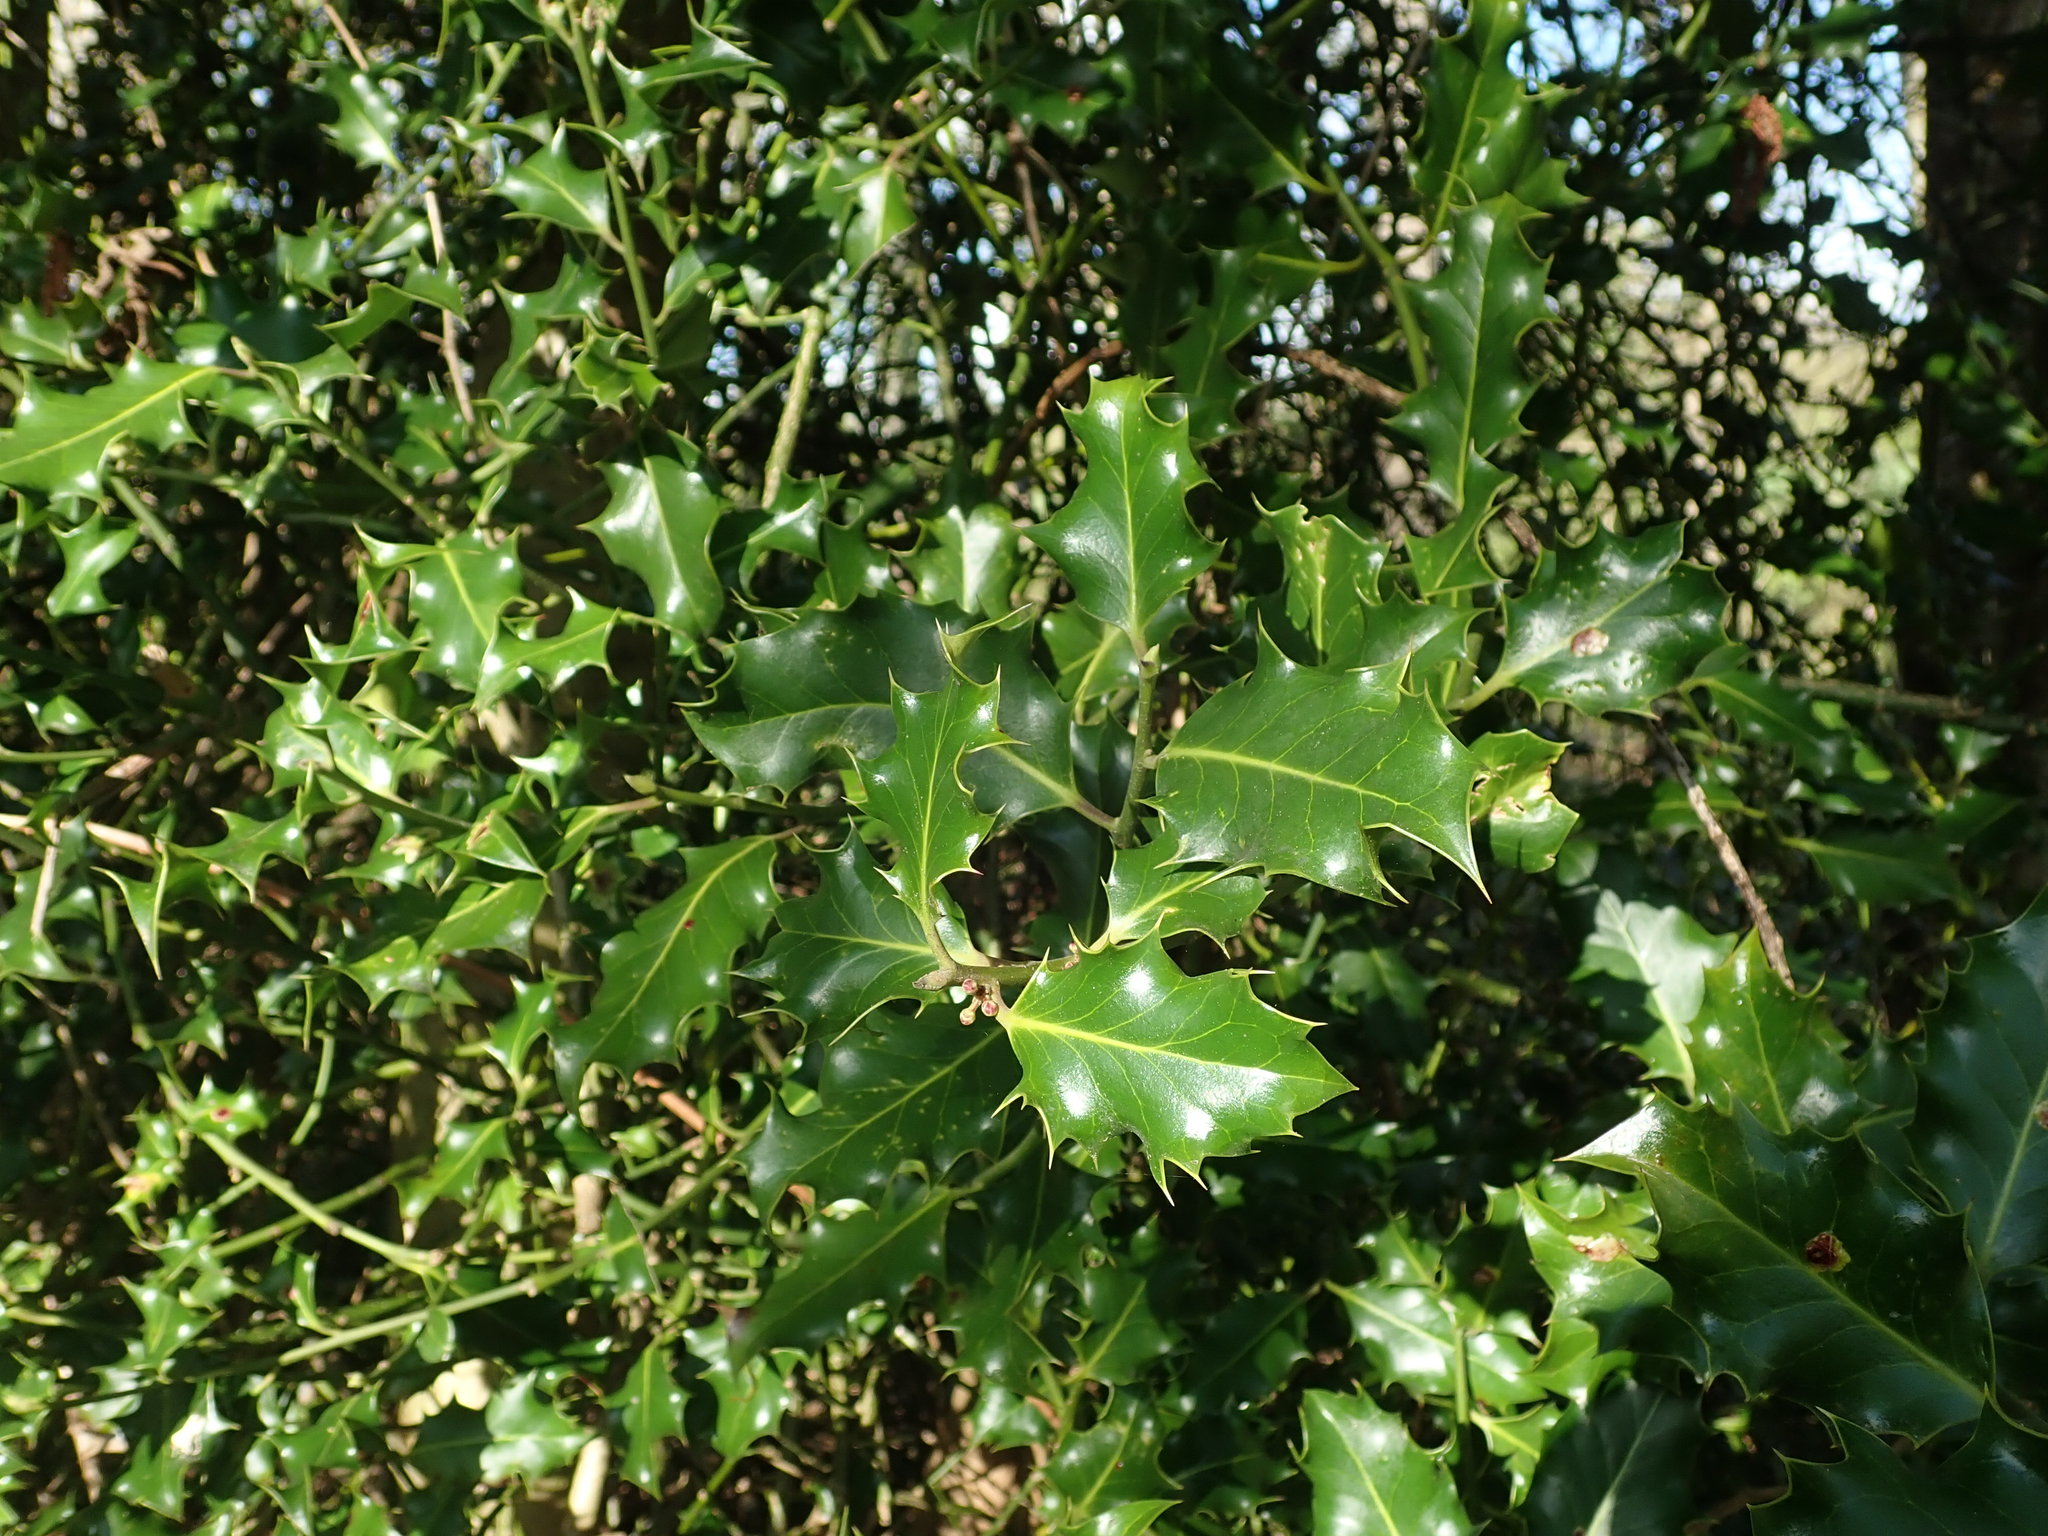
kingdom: Plantae
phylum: Tracheophyta
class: Magnoliopsida
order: Aquifoliales
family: Aquifoliaceae
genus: Ilex
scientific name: Ilex aquifolium
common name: English holly
